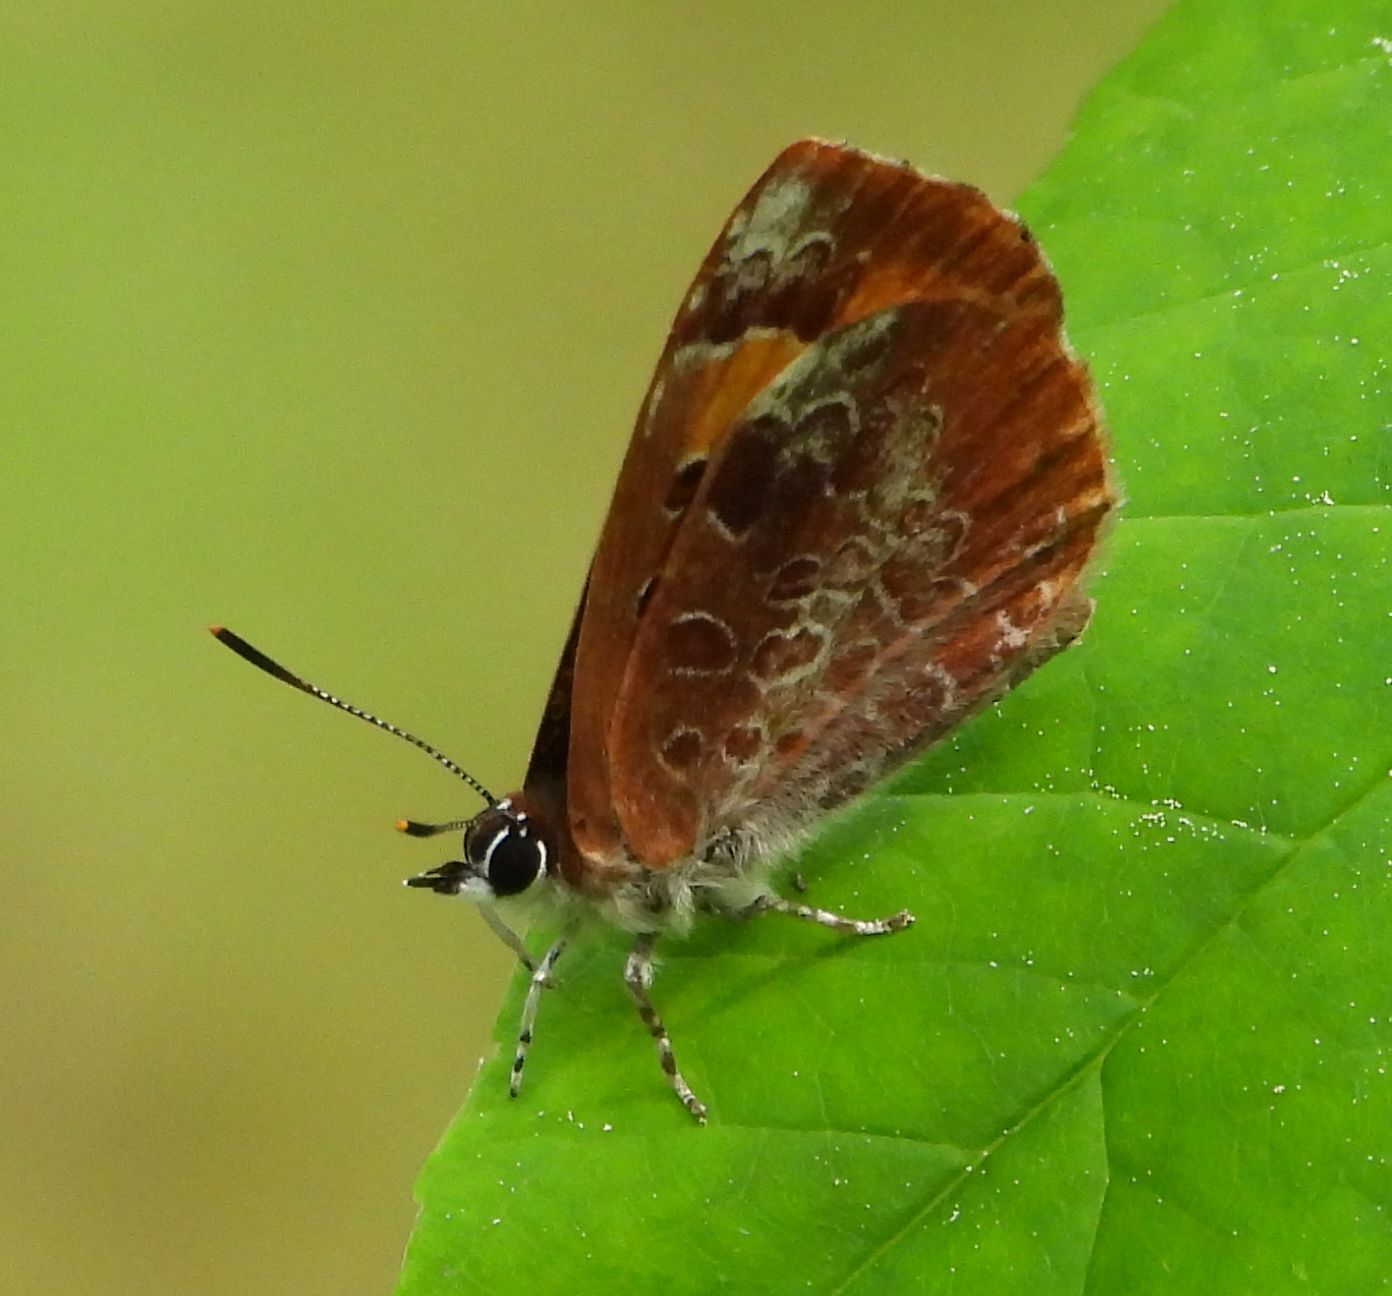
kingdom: Animalia
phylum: Arthropoda
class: Insecta
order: Lepidoptera
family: Lycaenidae
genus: Feniseca
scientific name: Feniseca tarquinius
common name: Harvester
